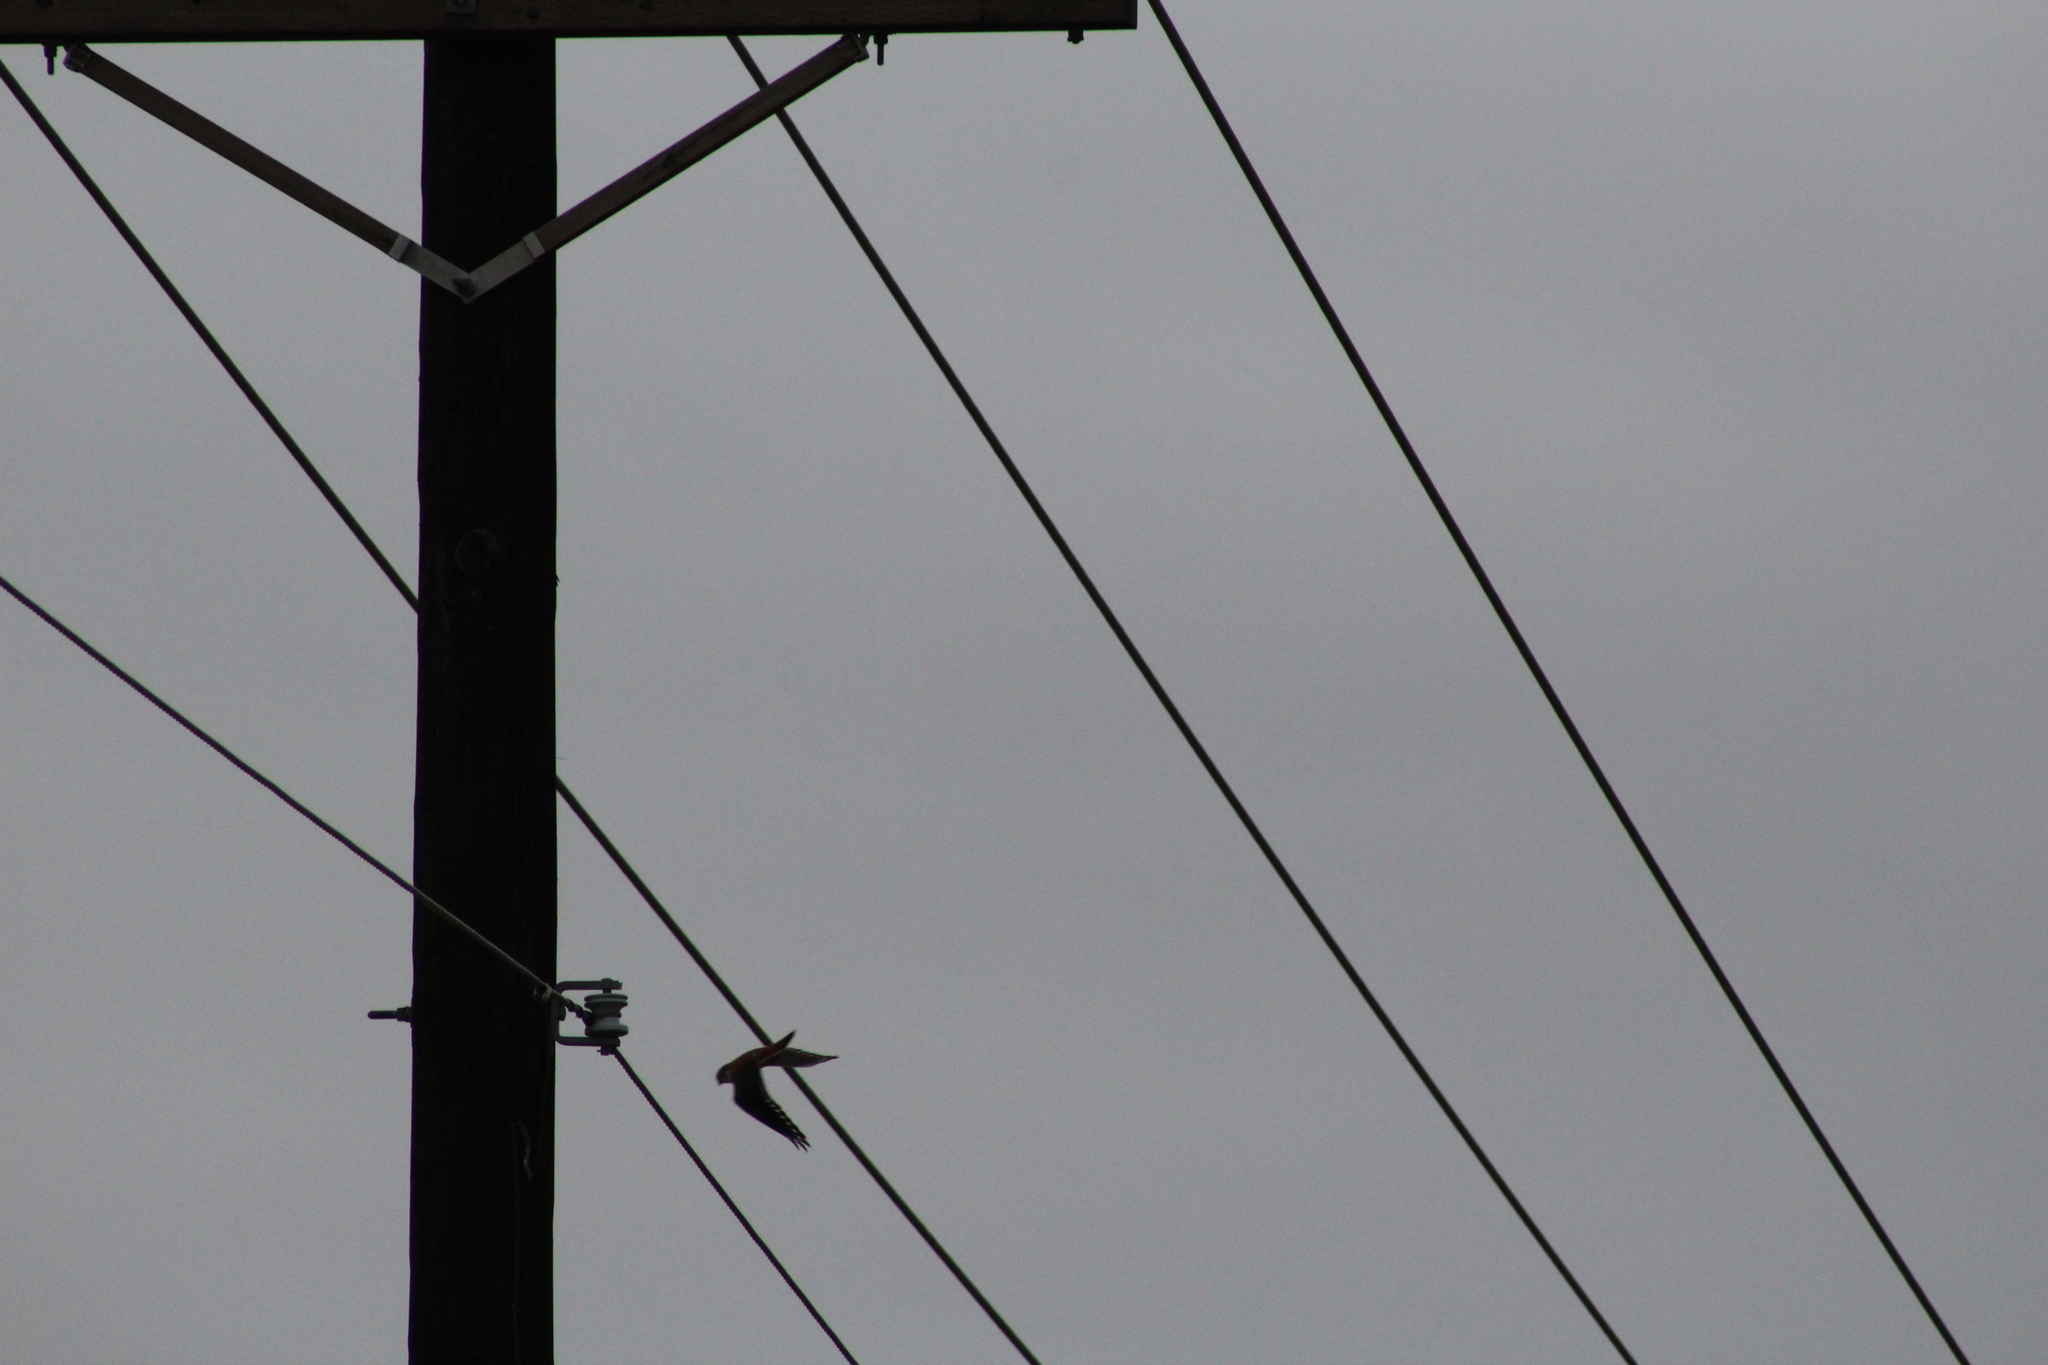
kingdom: Animalia
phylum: Chordata
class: Aves
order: Falconiformes
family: Falconidae
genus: Falco
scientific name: Falco sparverius
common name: American kestrel
